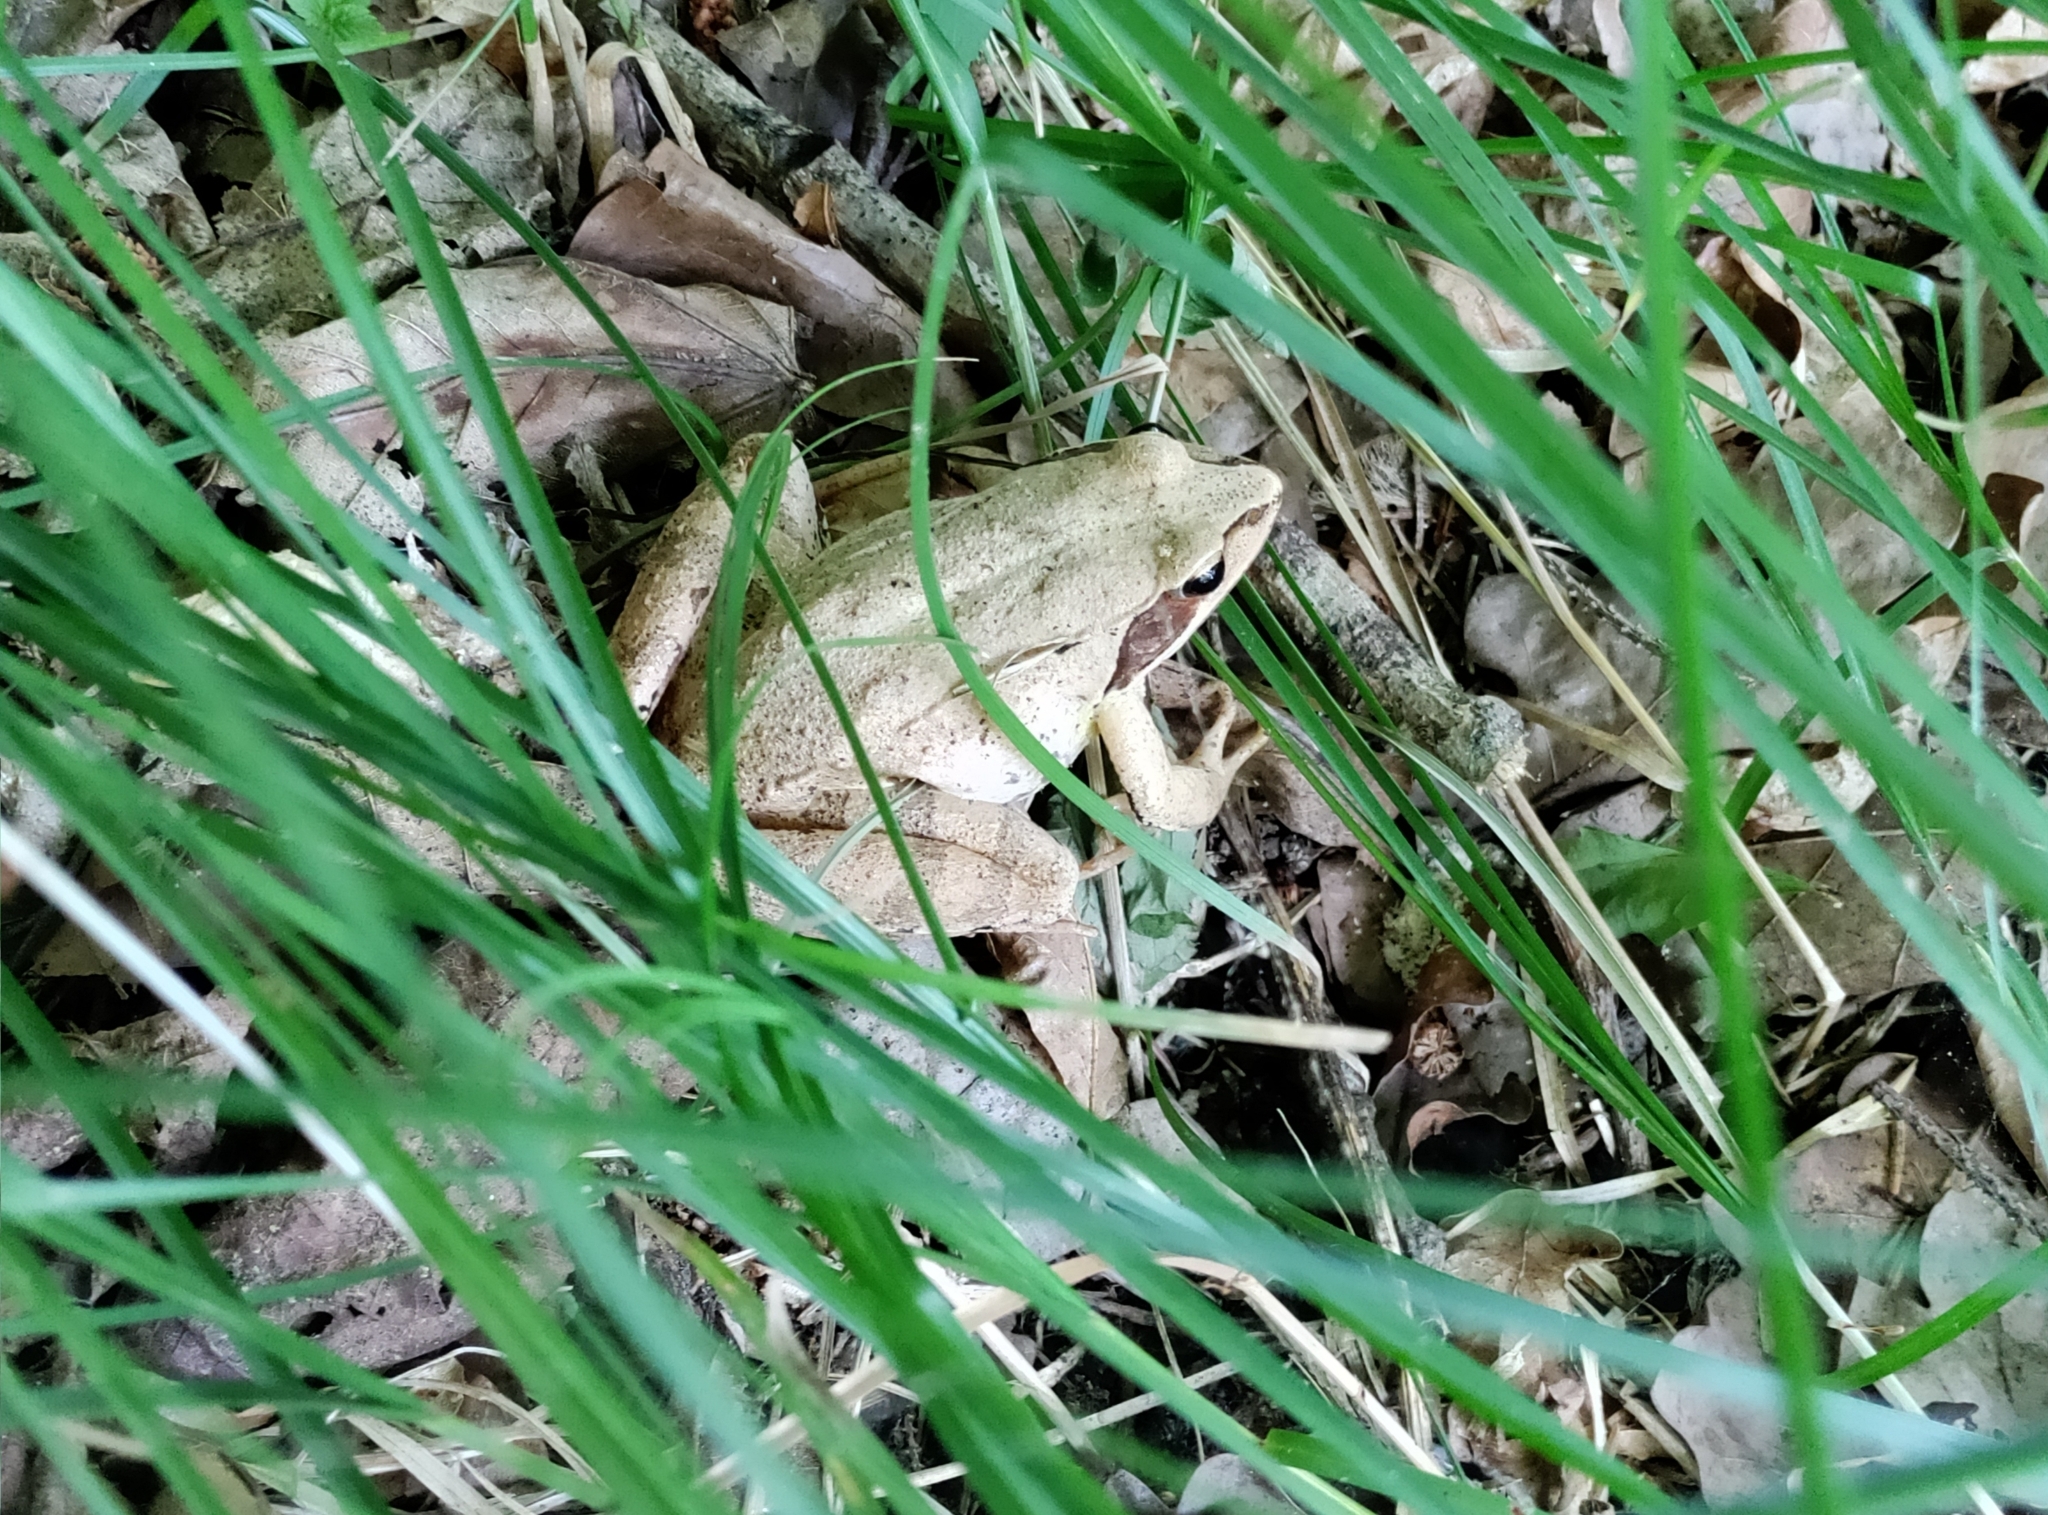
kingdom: Animalia
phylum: Chordata
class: Amphibia
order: Anura
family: Ranidae
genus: Rana
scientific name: Rana dalmatina
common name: Agile frog
